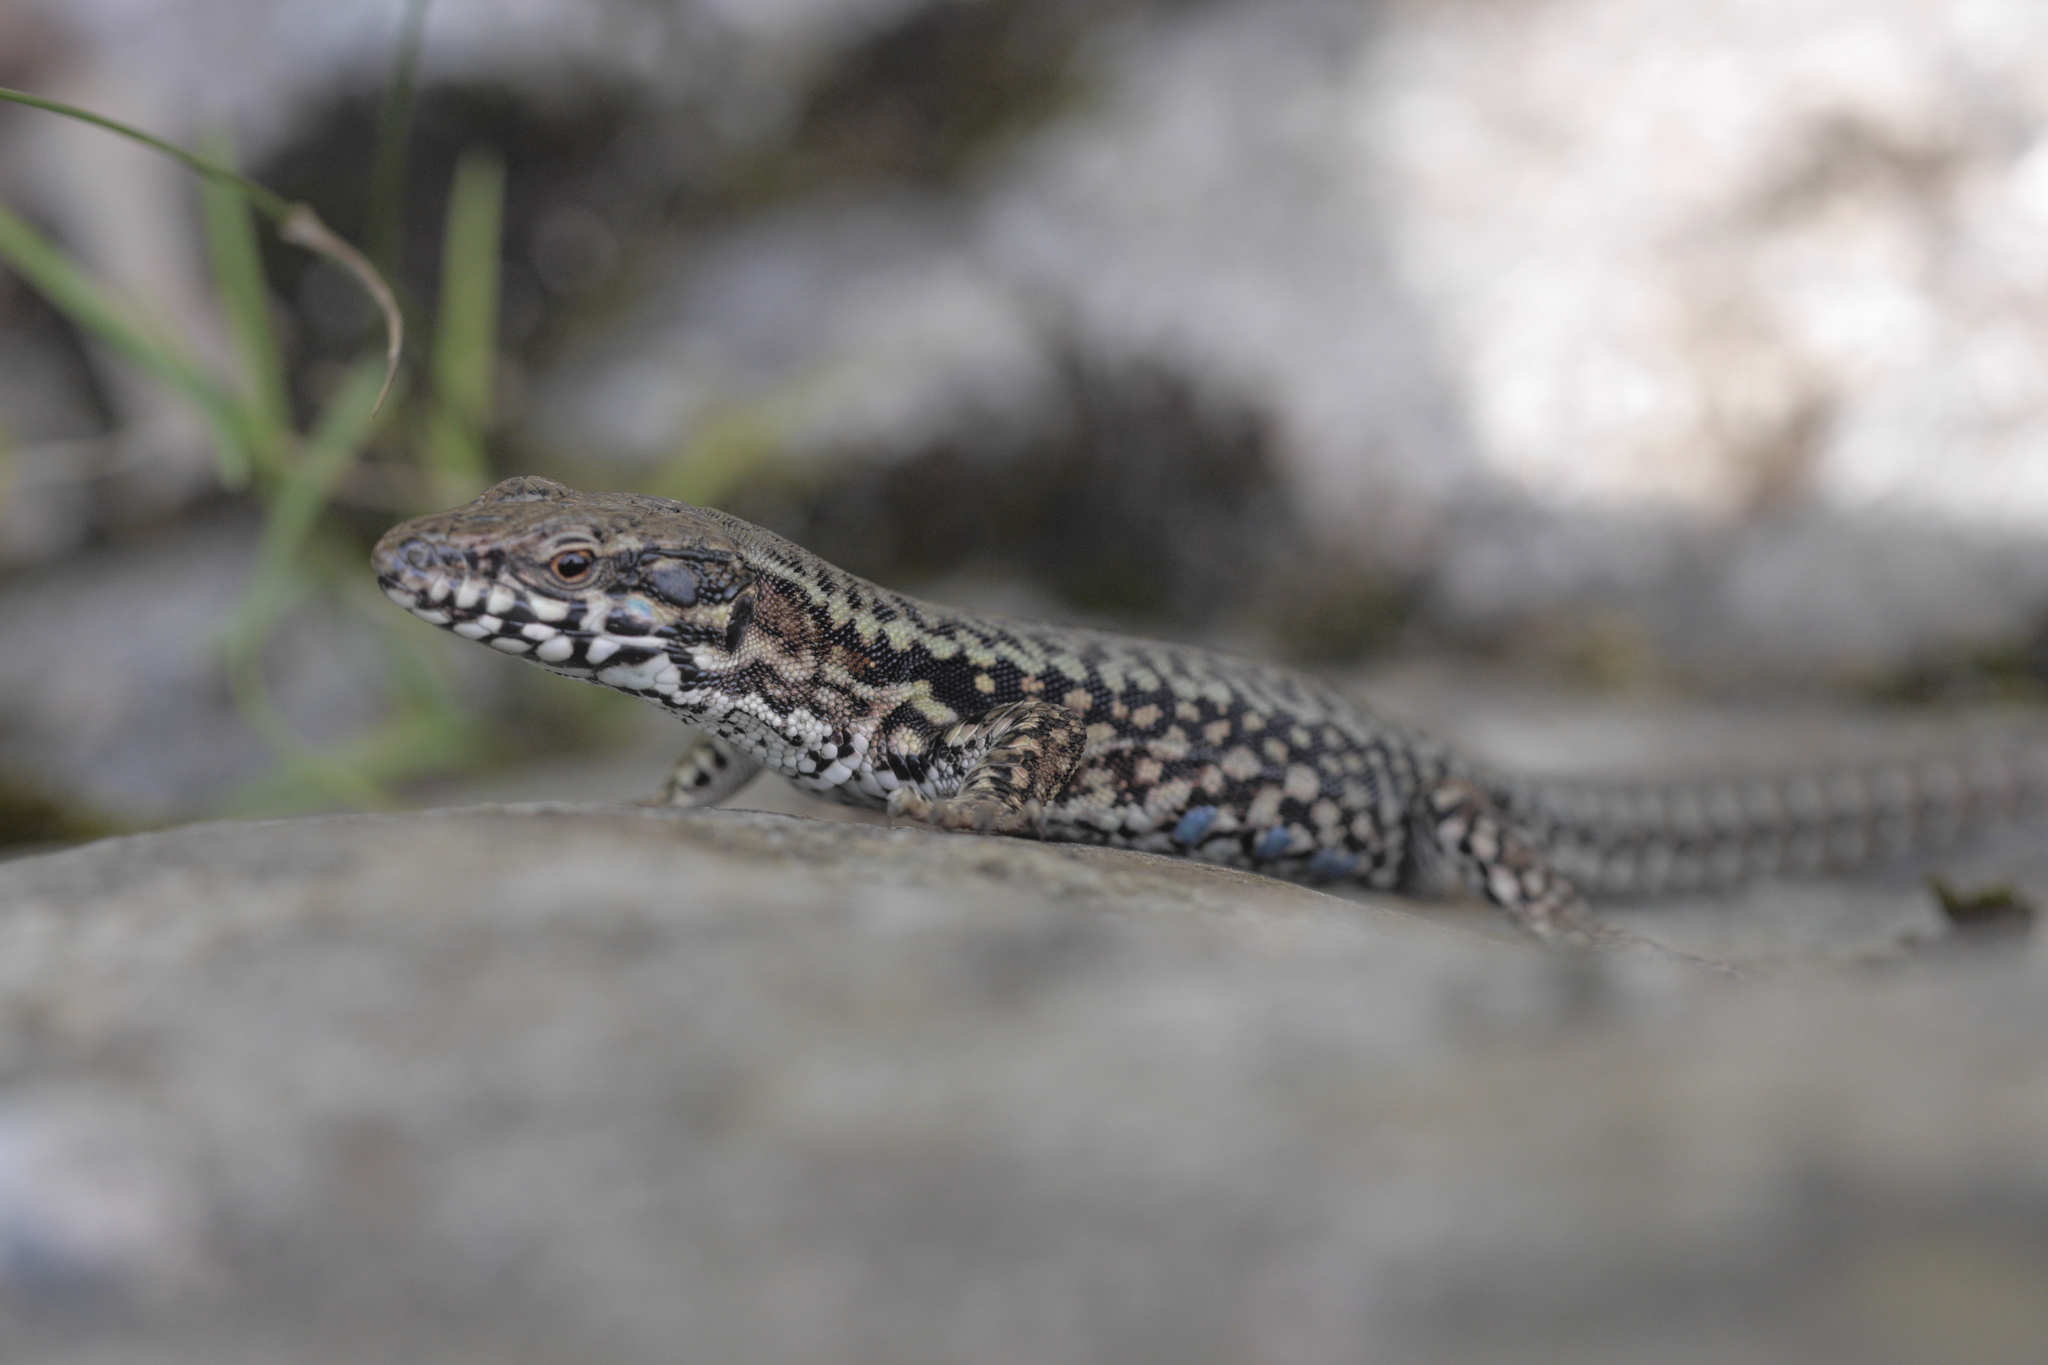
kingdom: Animalia
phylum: Chordata
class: Squamata
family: Lacertidae
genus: Podarcis
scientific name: Podarcis muralis
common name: Common wall lizard
